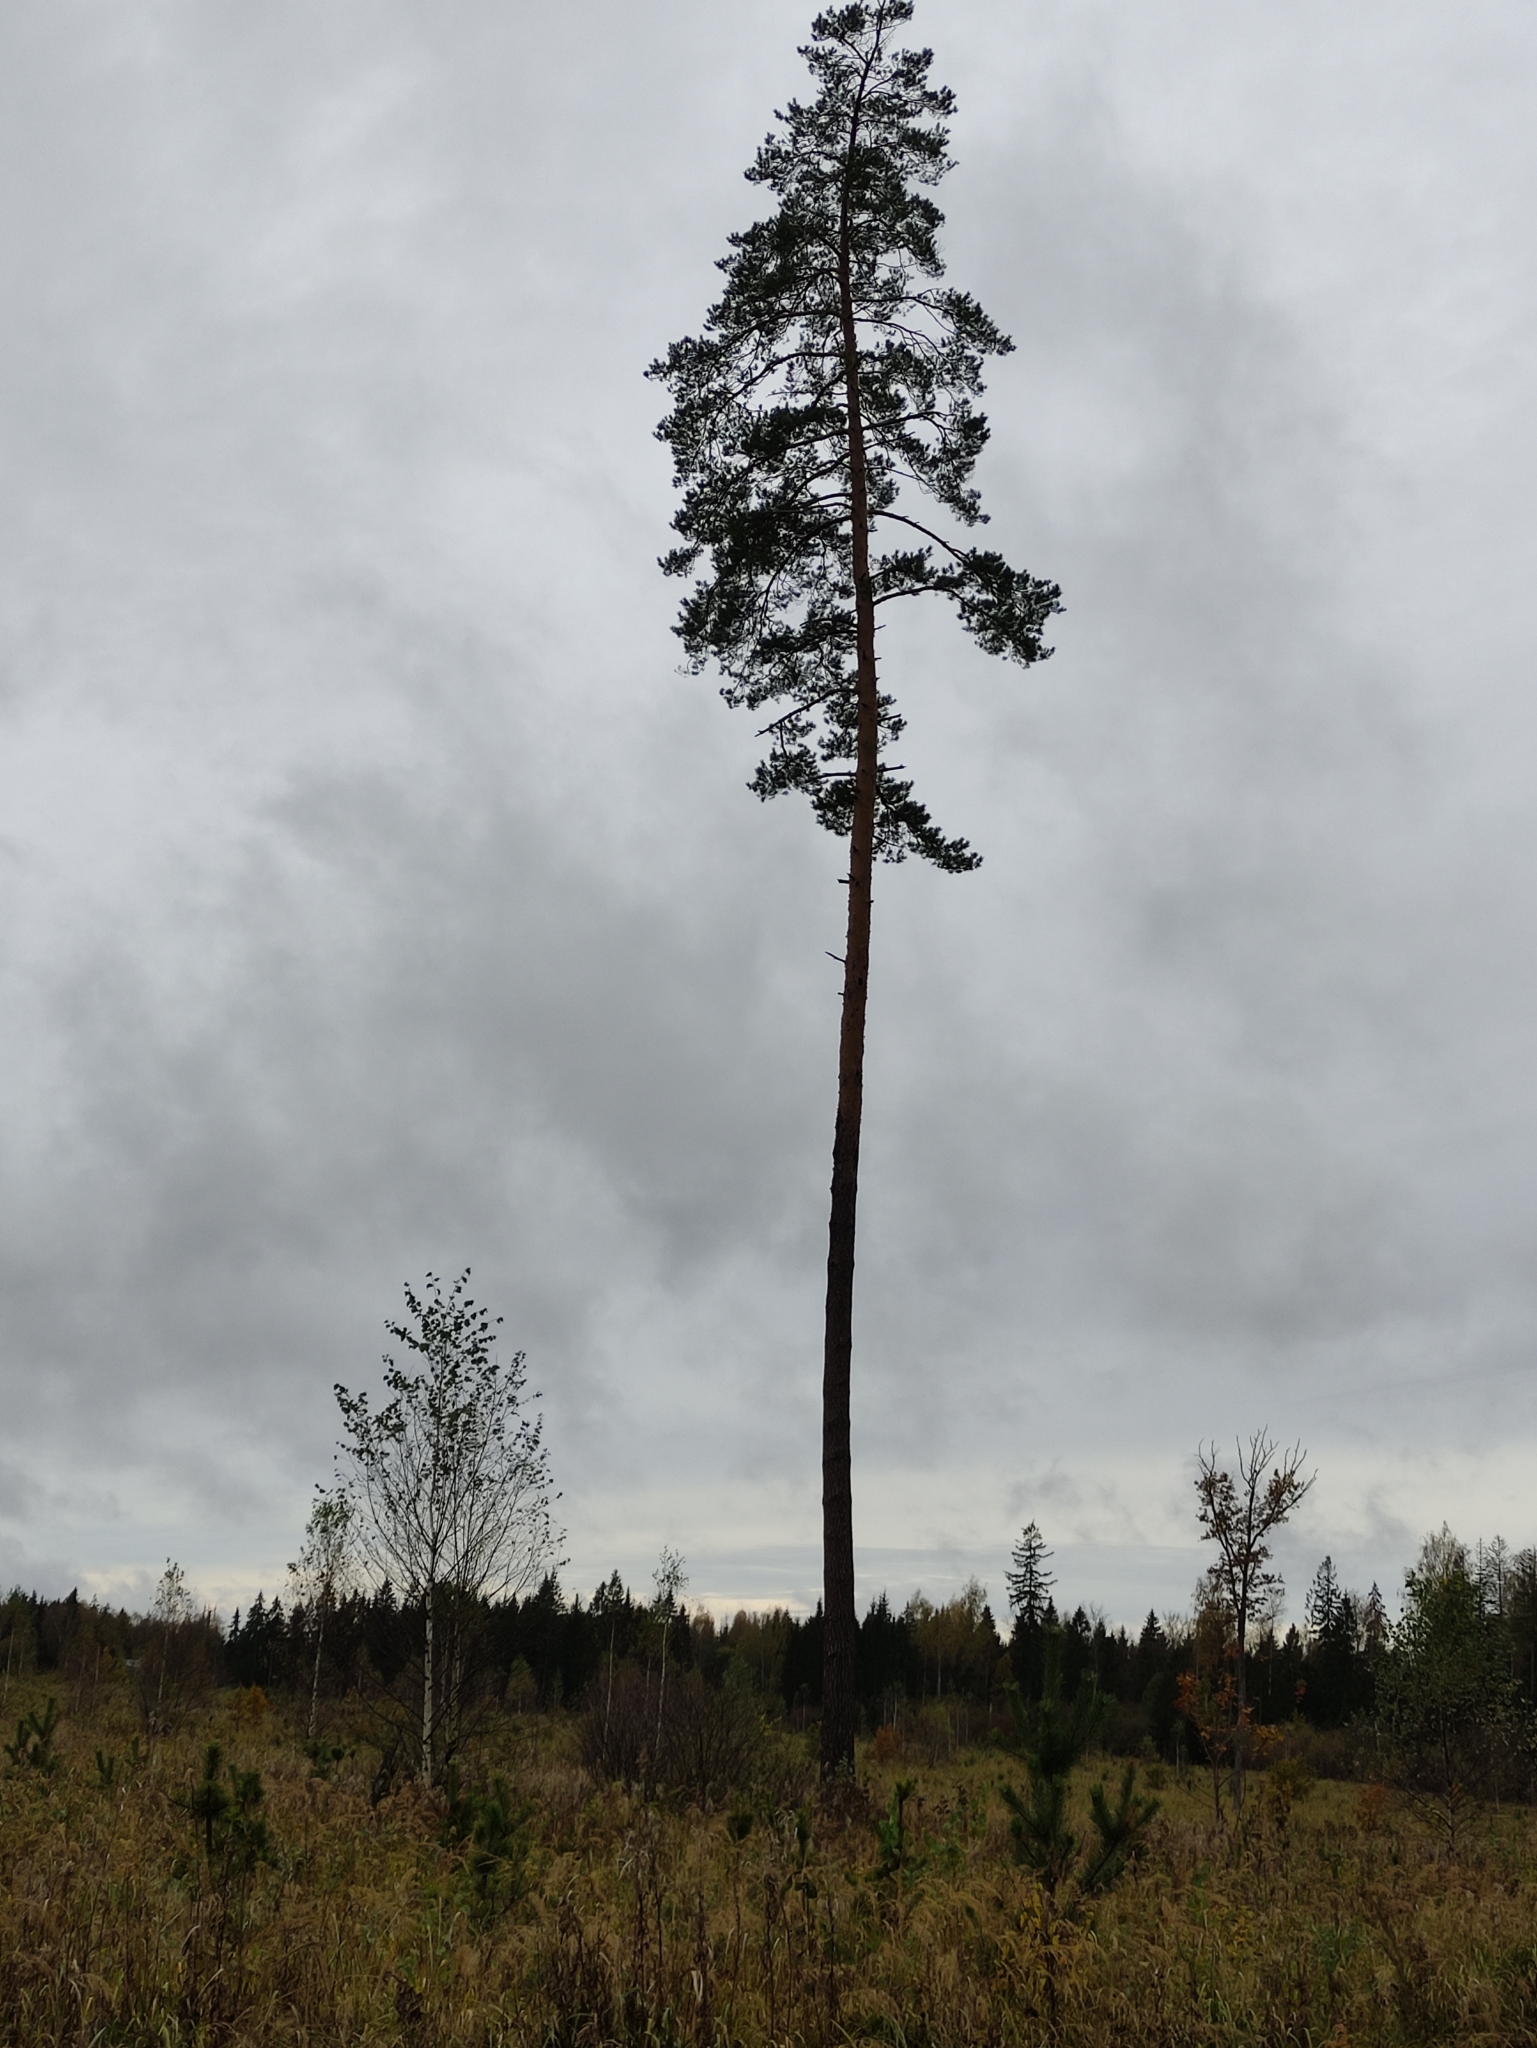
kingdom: Plantae
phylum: Tracheophyta
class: Pinopsida
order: Pinales
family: Pinaceae
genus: Pinus
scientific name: Pinus sylvestris
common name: Scots pine
